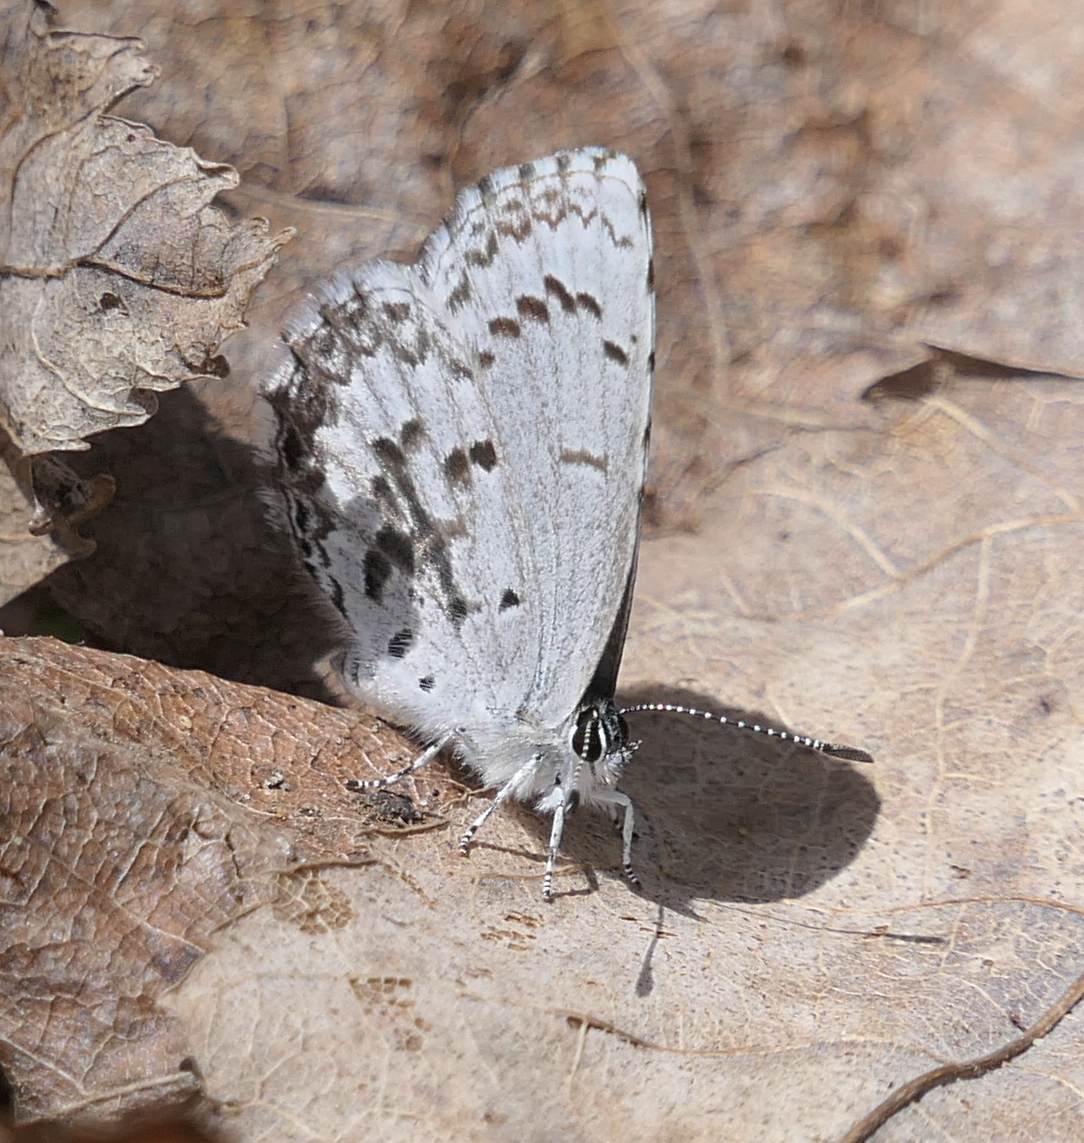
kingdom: Animalia
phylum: Arthropoda
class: Insecta
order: Lepidoptera
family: Lycaenidae
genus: Celastrina
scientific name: Celastrina lucia
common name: Lucia azure
